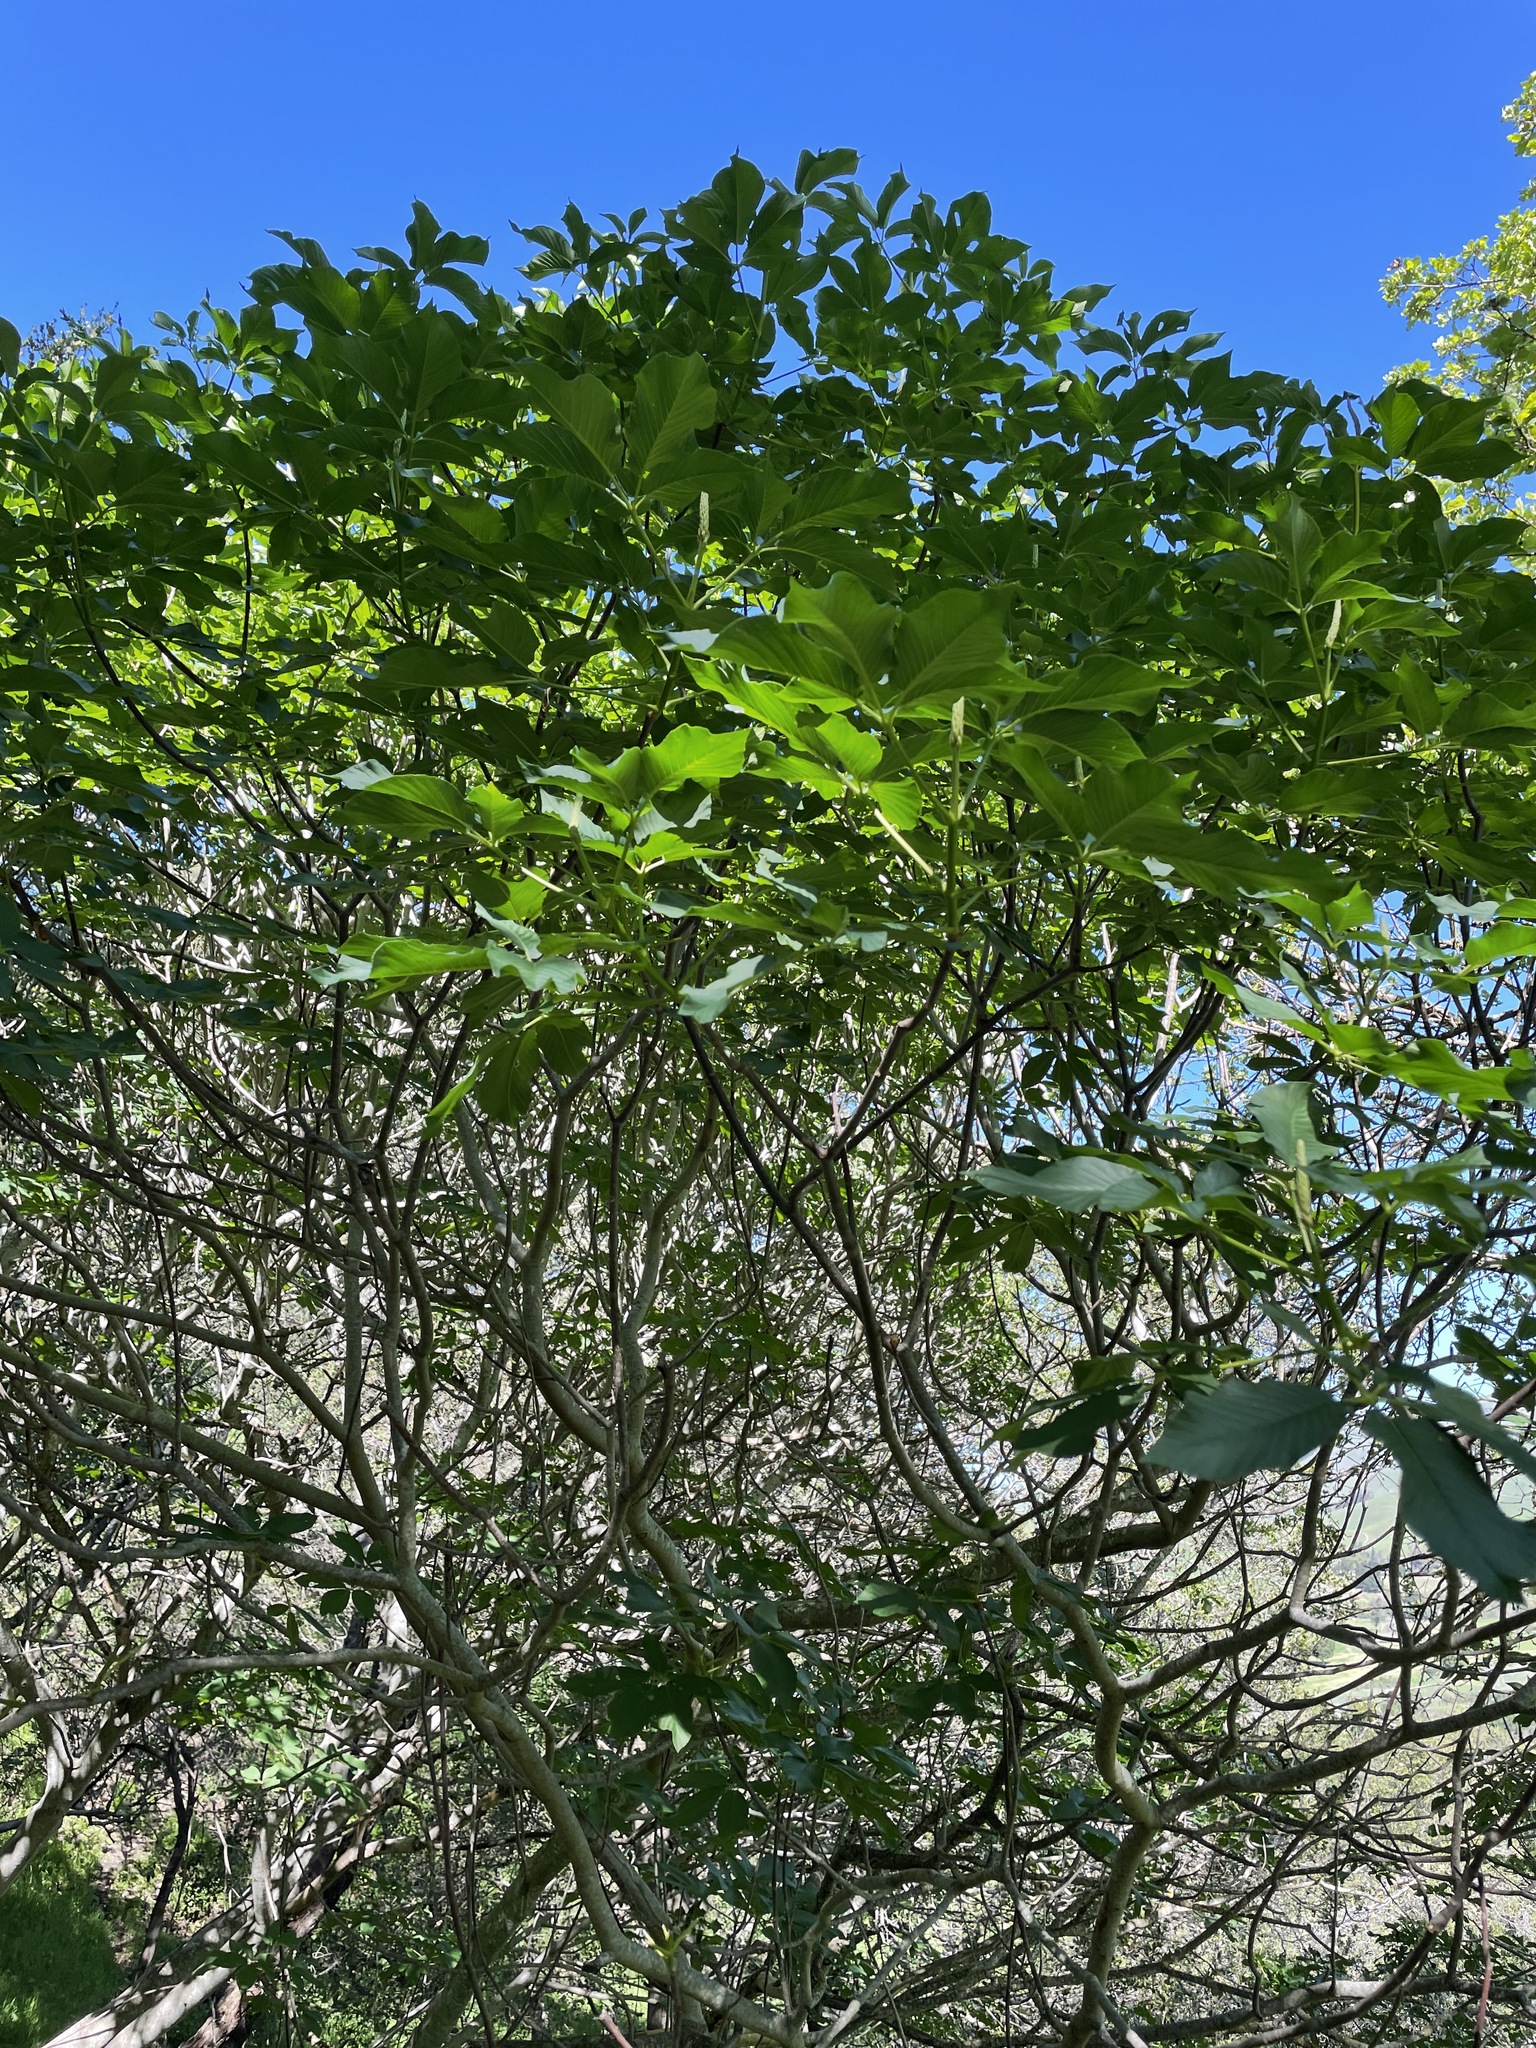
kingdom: Plantae
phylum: Tracheophyta
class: Magnoliopsida
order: Sapindales
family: Sapindaceae
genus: Aesculus
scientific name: Aesculus californica
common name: California buckeye
